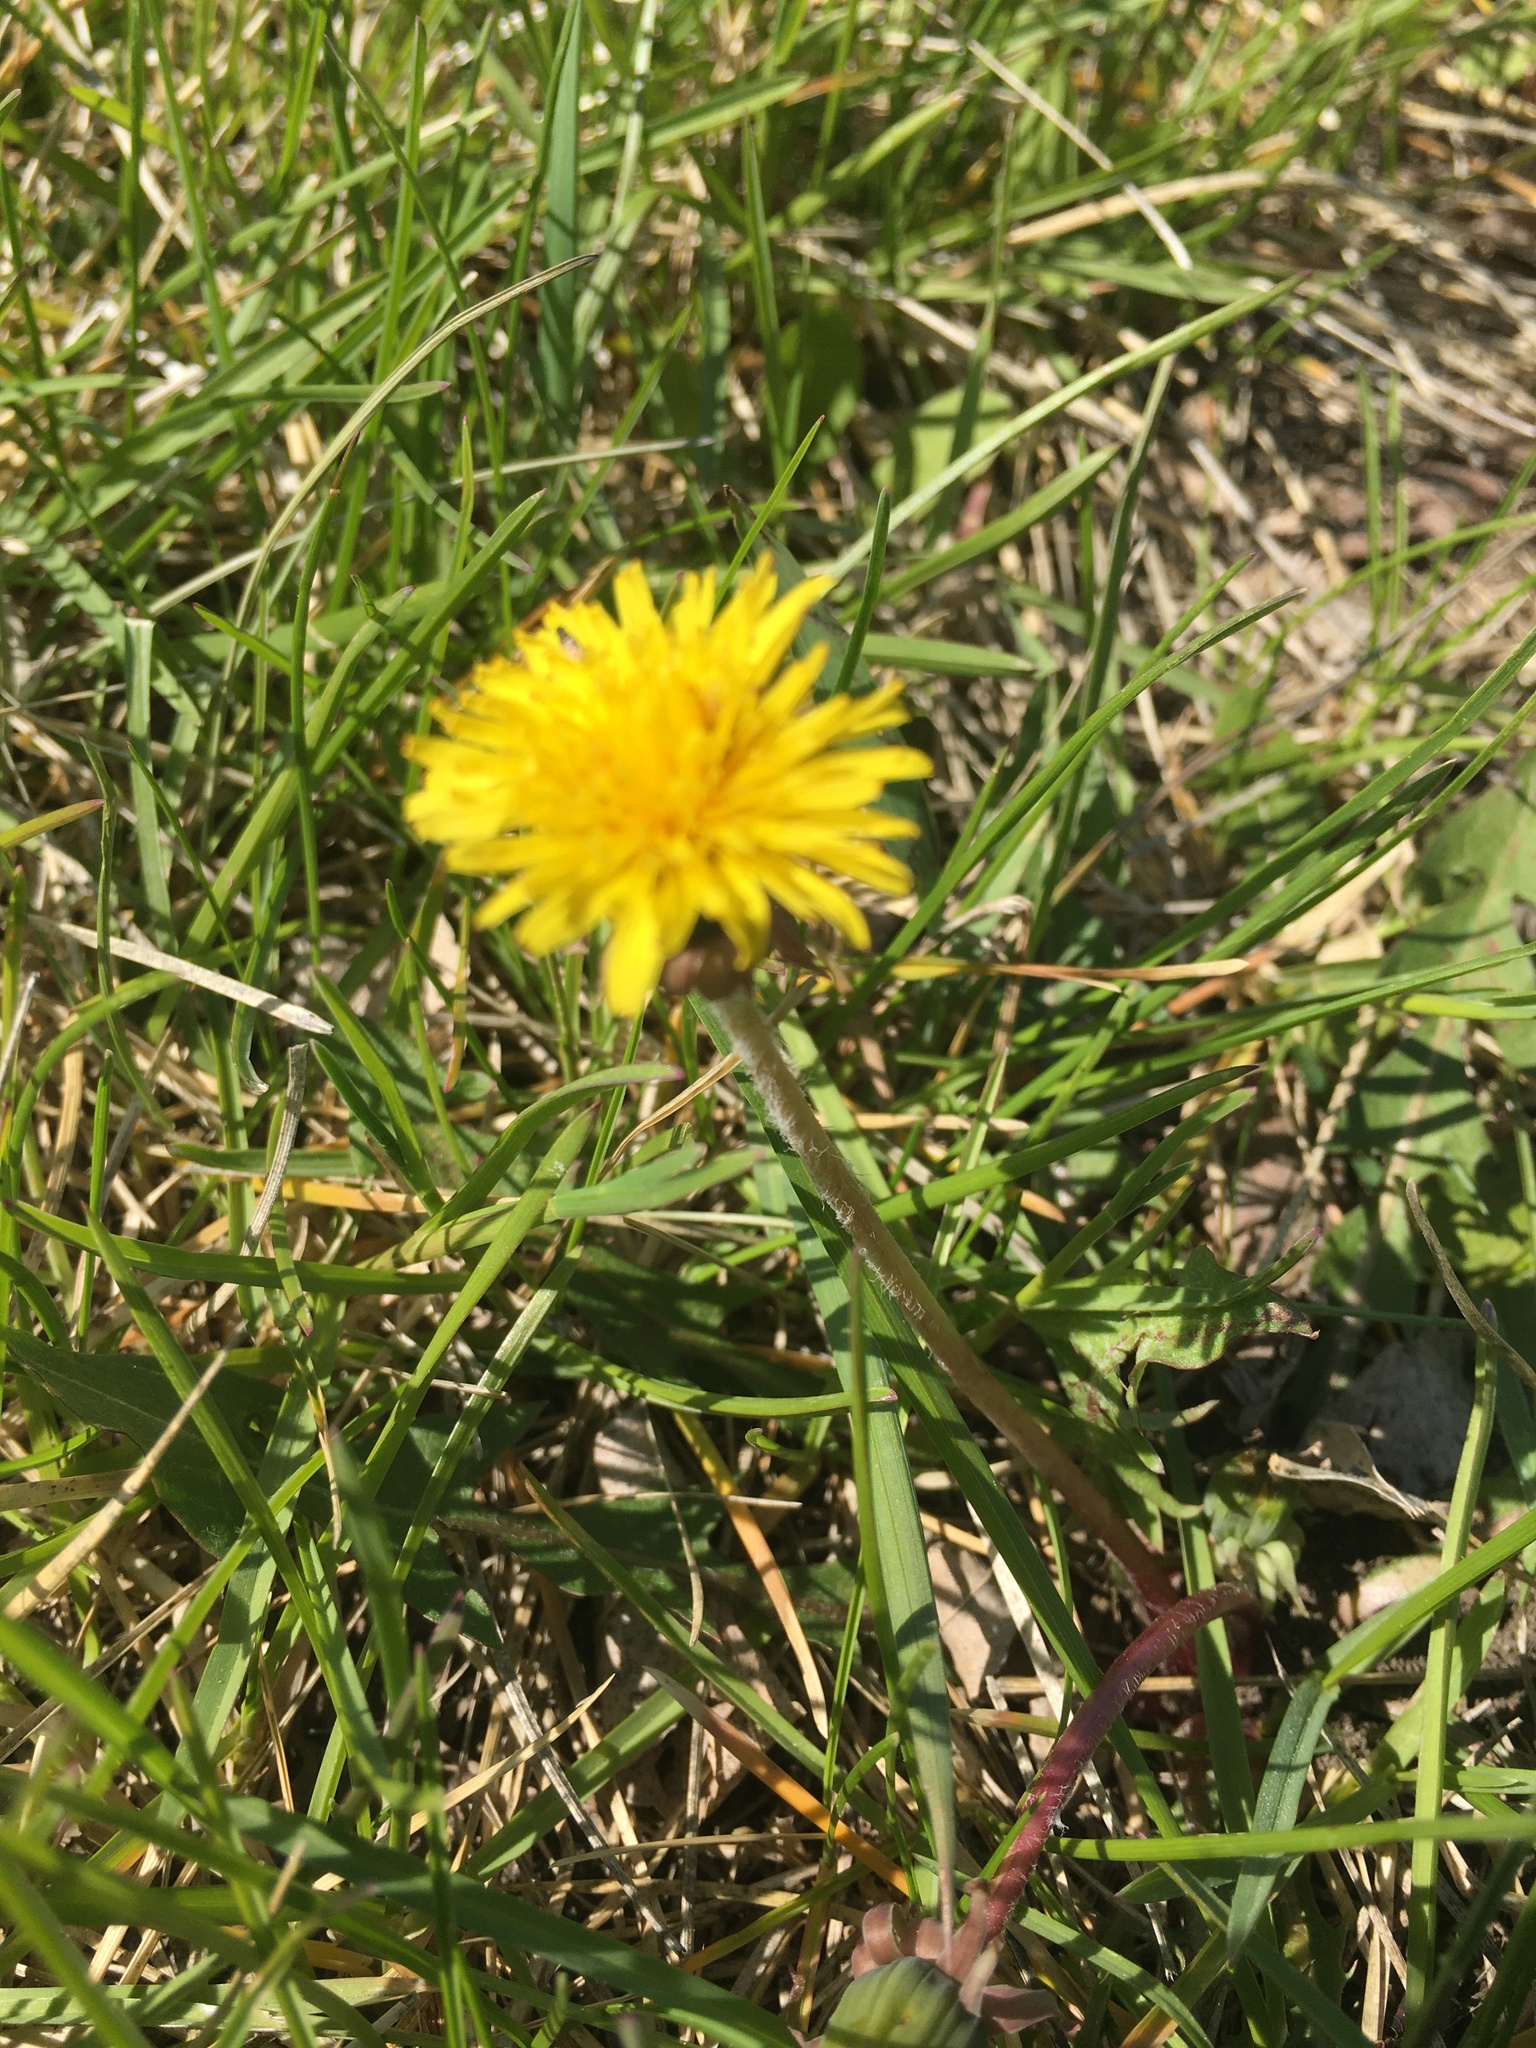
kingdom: Plantae
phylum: Tracheophyta
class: Magnoliopsida
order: Asterales
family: Asteraceae
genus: Taraxacum
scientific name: Taraxacum officinale
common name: Common dandelion
